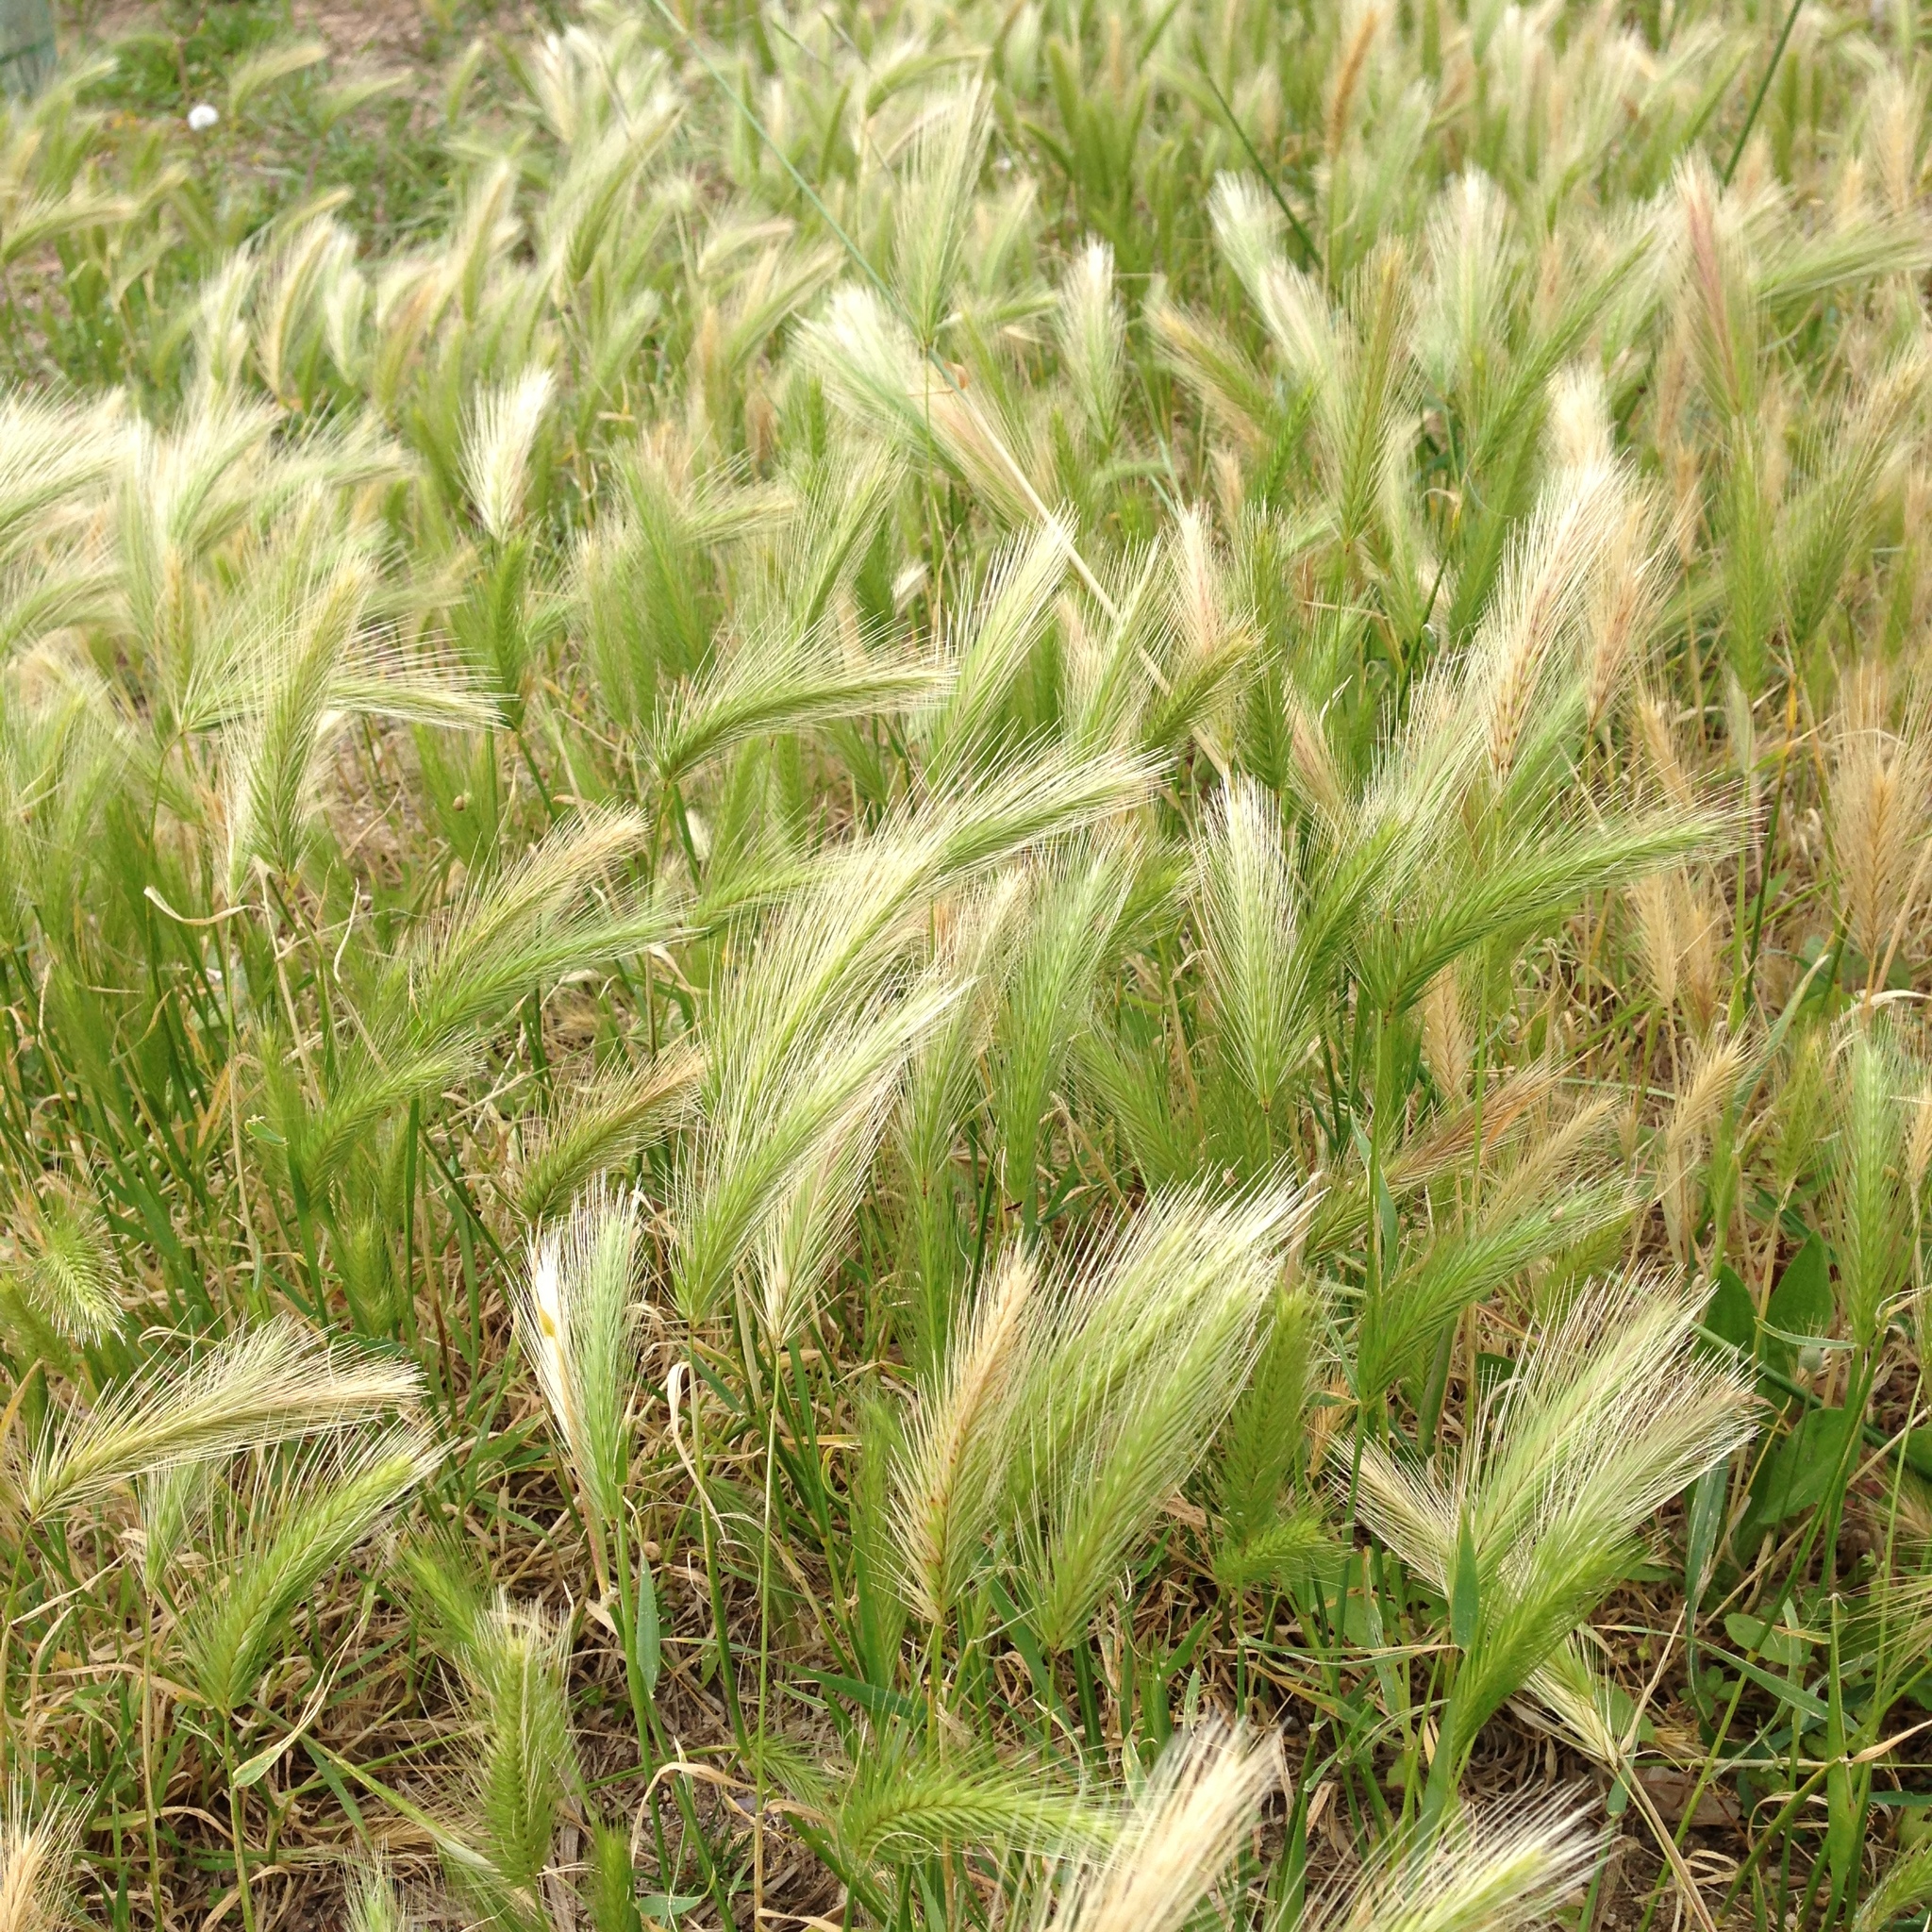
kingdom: Plantae
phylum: Tracheophyta
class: Liliopsida
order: Poales
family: Poaceae
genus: Hordeum
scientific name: Hordeum murinum
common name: Wall barley
